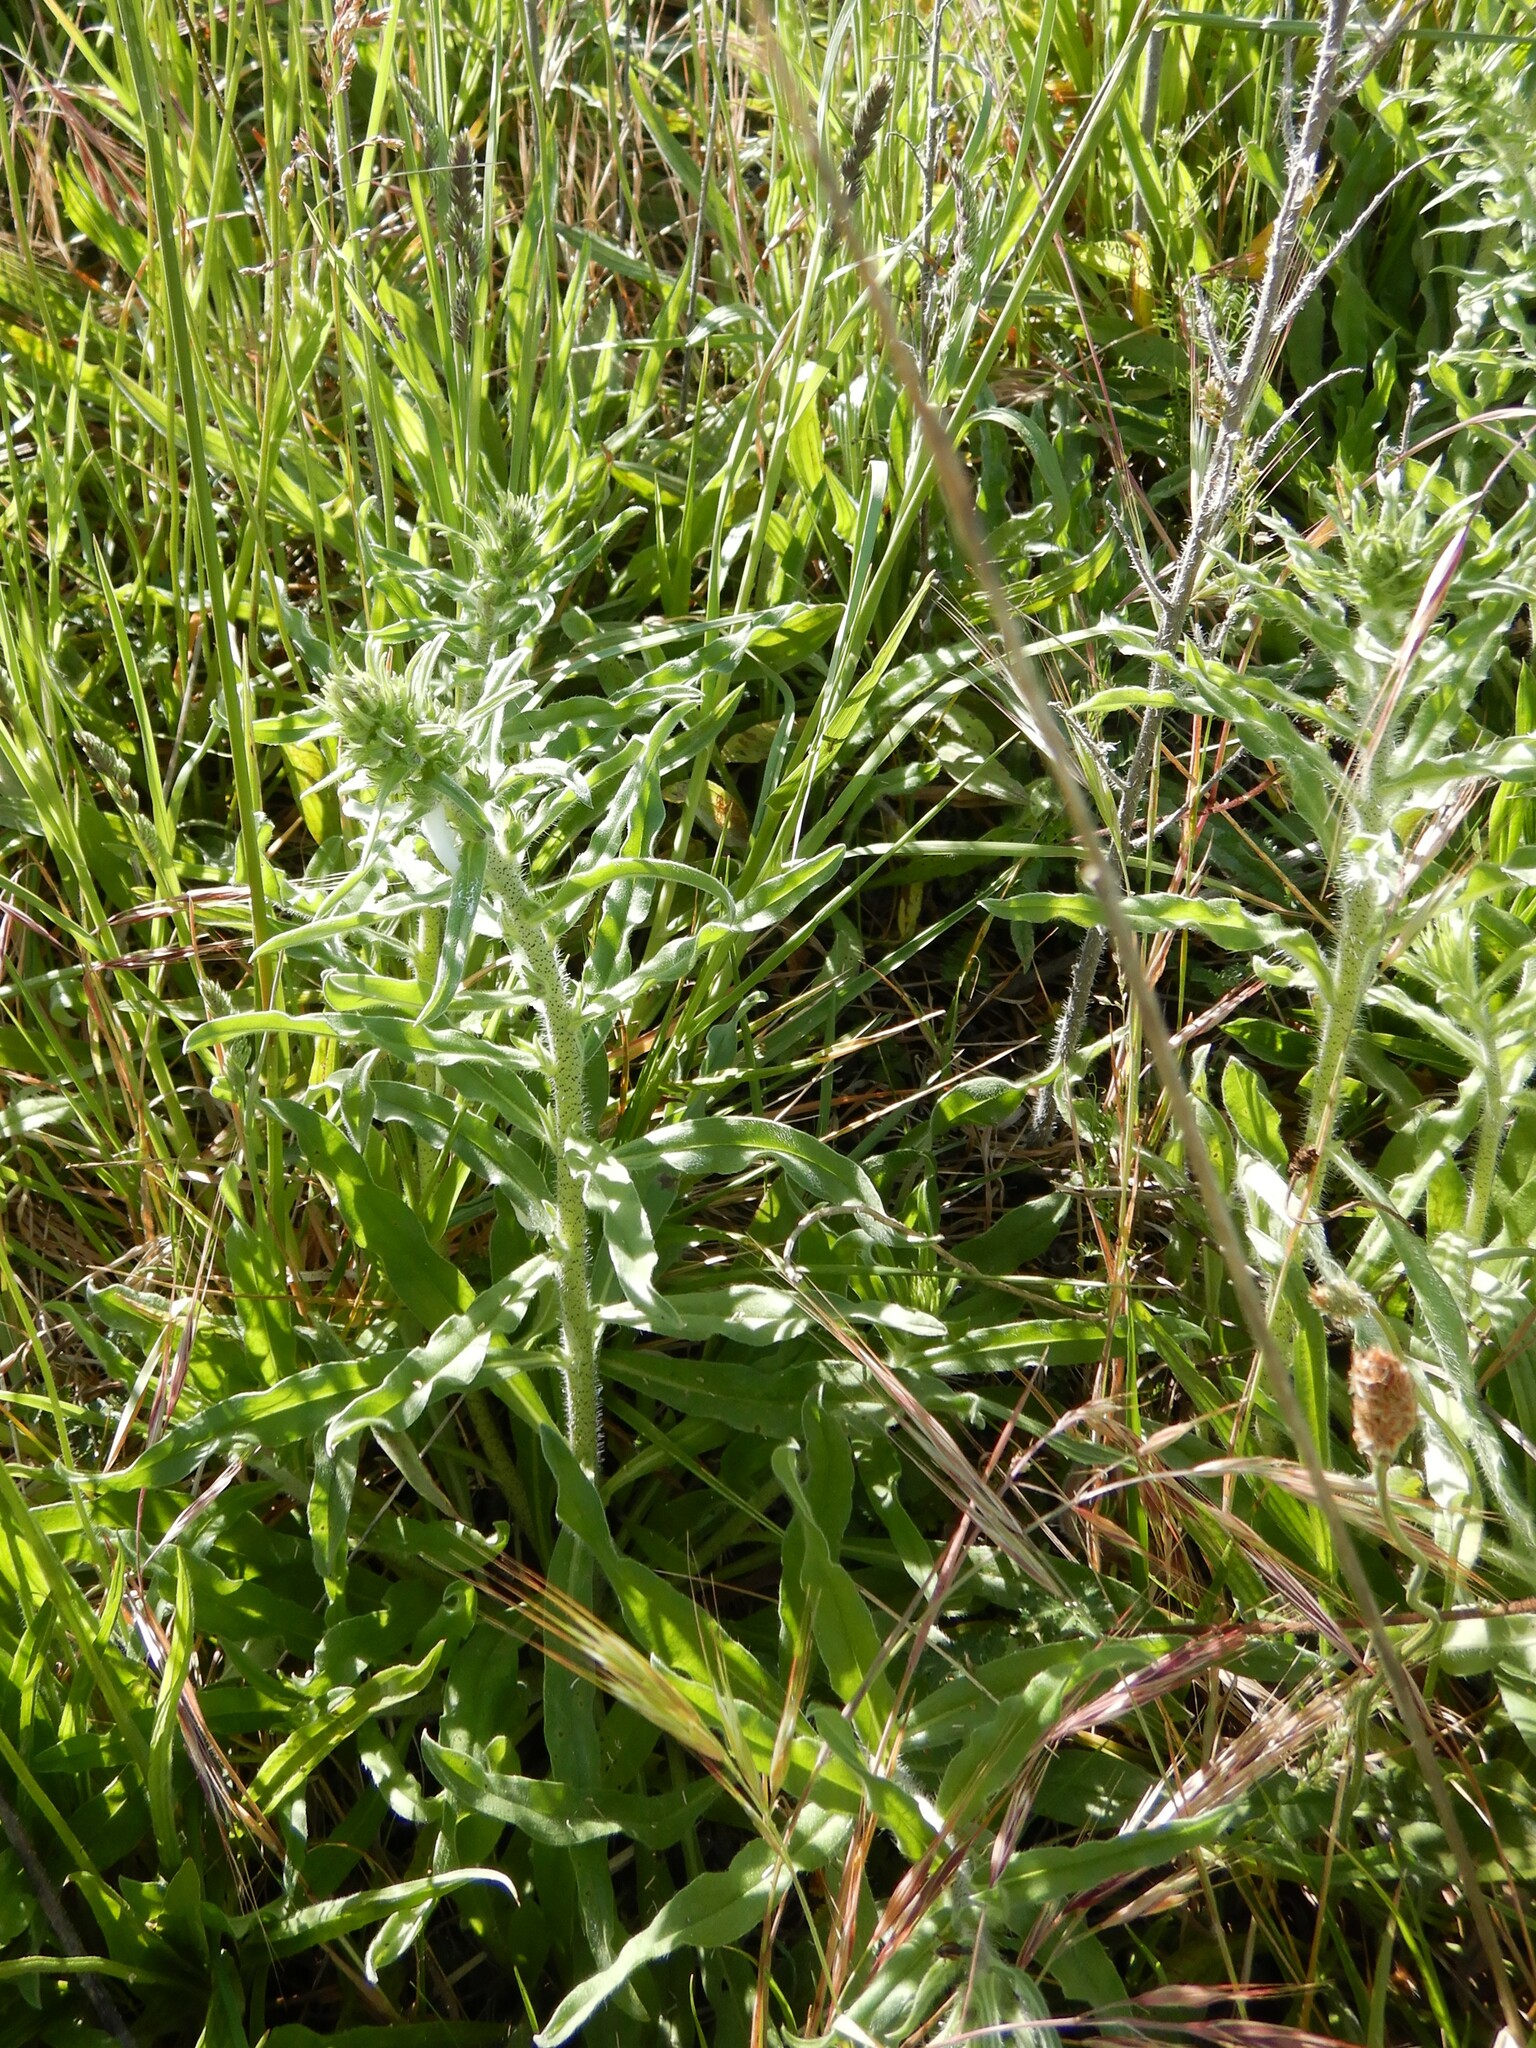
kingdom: Plantae
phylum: Tracheophyta
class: Magnoliopsida
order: Boraginales
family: Boraginaceae
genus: Echium
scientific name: Echium vulgare
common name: Common viper's bugloss
